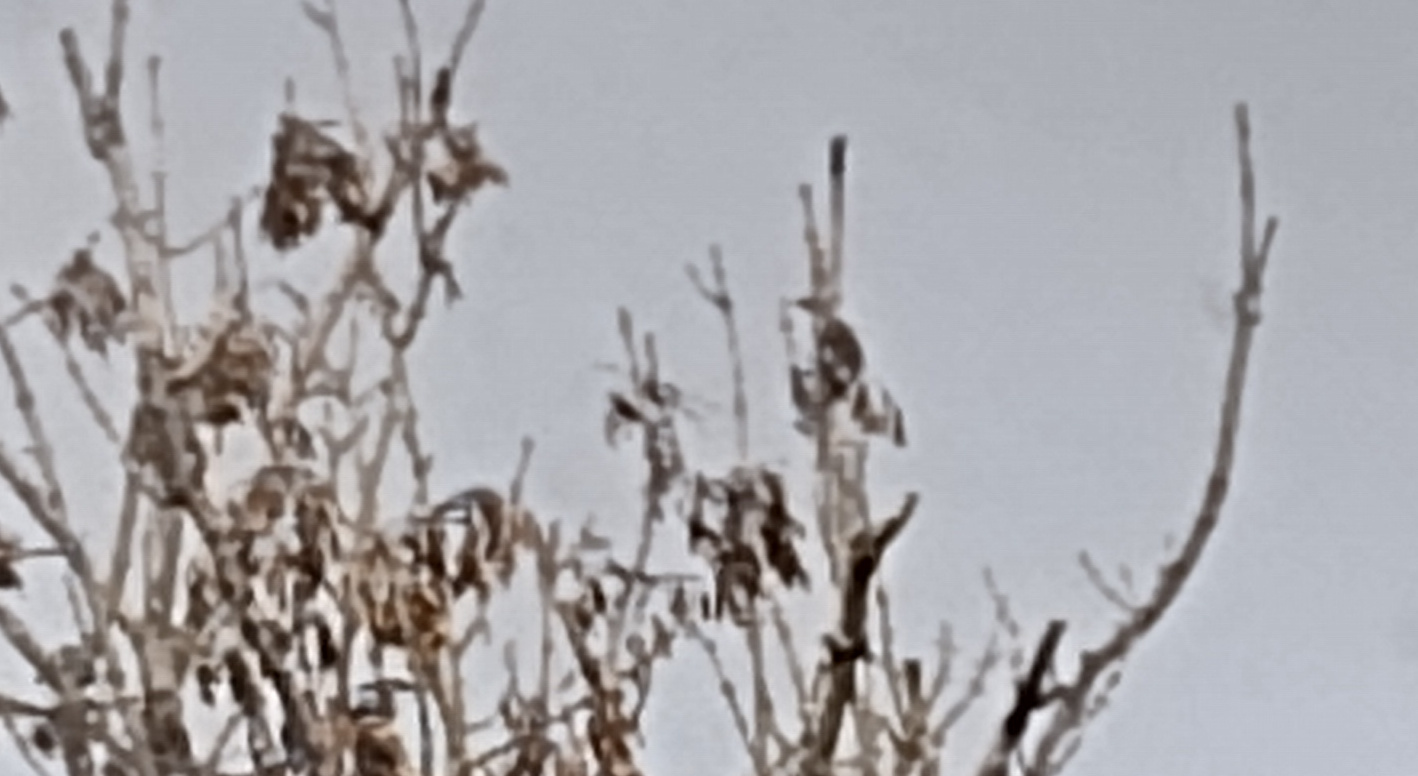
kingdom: Animalia
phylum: Chordata
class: Aves
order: Piciformes
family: Picidae
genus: Dendrocopos
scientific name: Dendrocopos major
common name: Great spotted woodpecker
